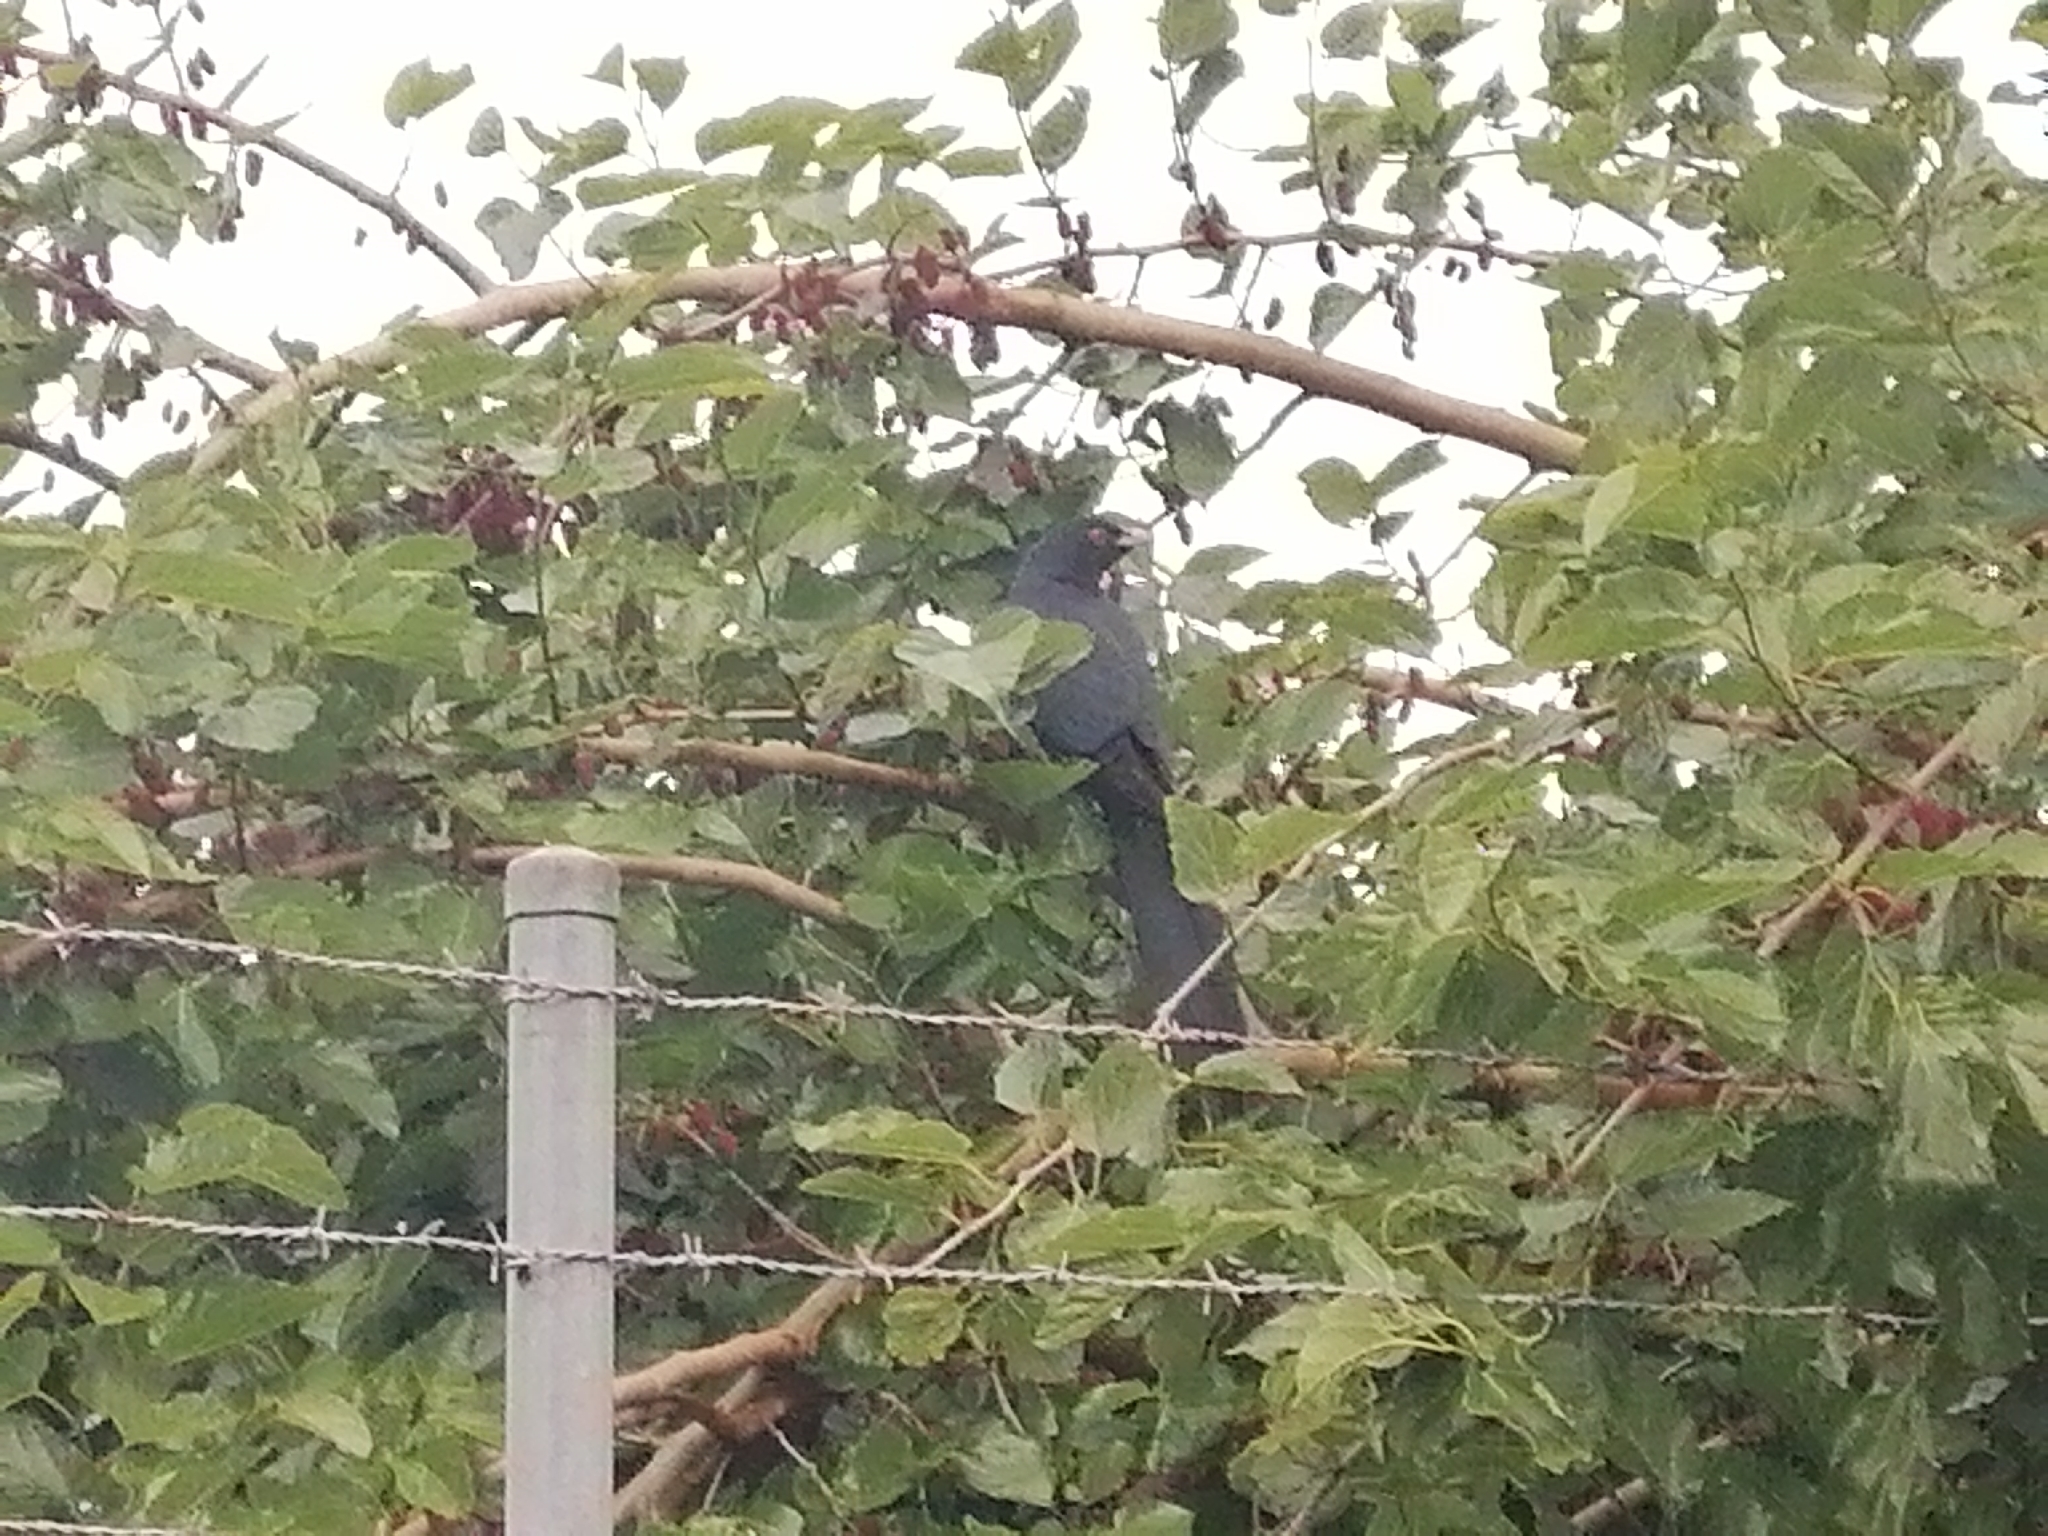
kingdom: Animalia
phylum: Chordata
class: Aves
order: Cuculiformes
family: Cuculidae
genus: Eudynamys
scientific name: Eudynamys orientalis
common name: Pacific koel
